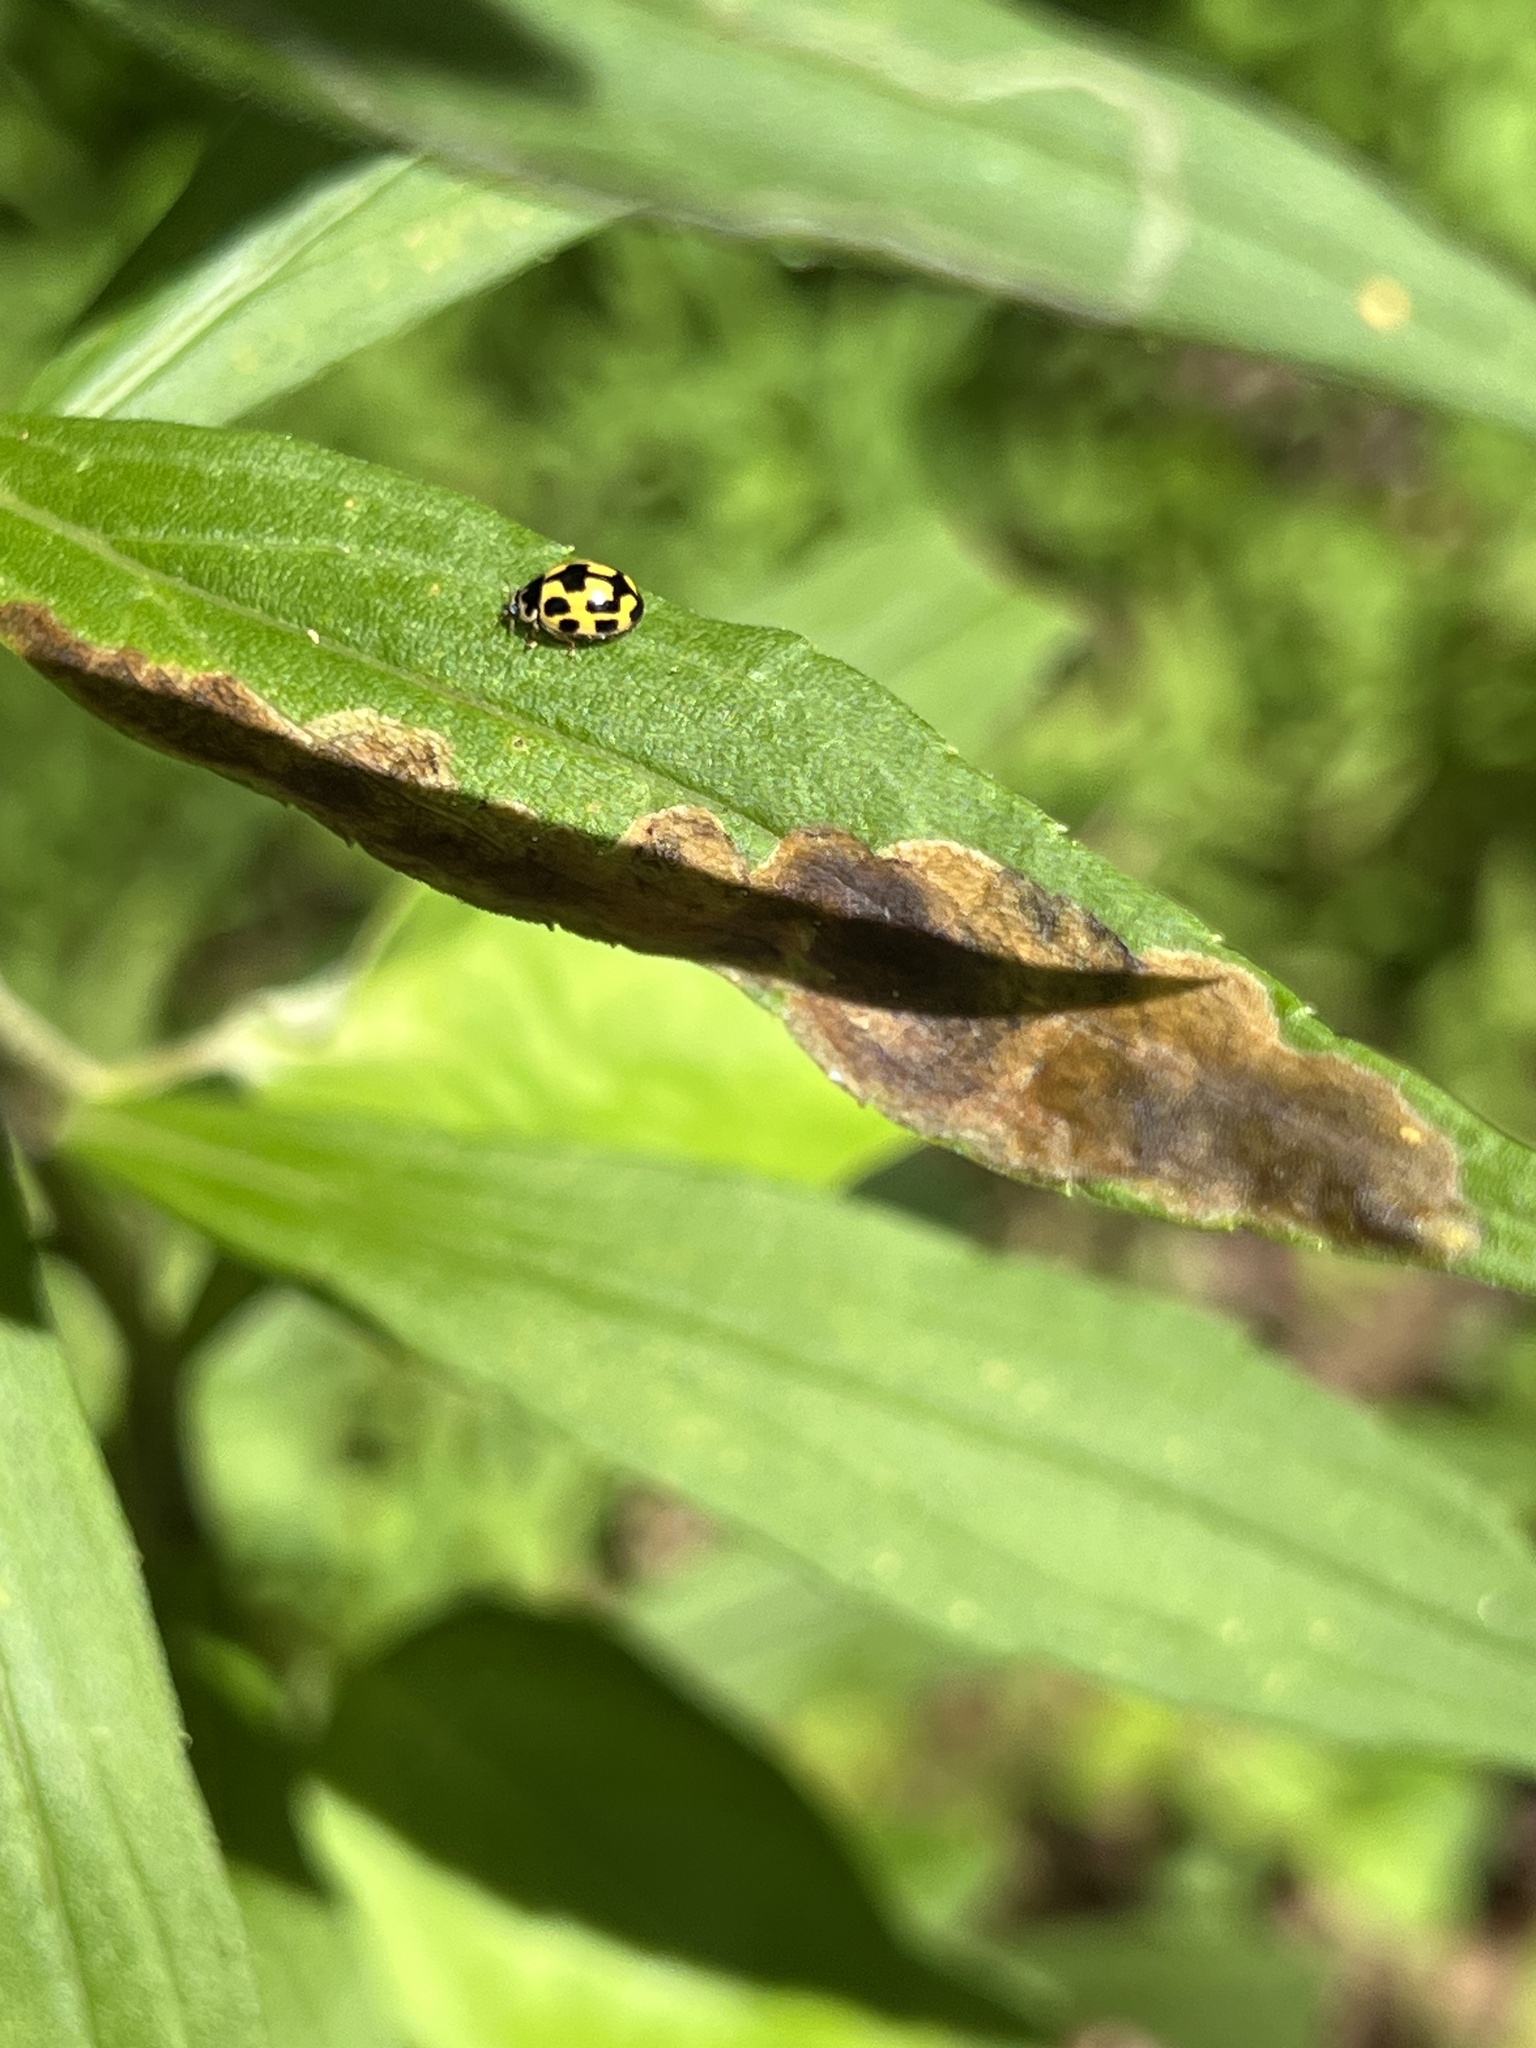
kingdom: Animalia
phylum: Arthropoda
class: Insecta
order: Coleoptera
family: Coccinellidae
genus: Propylaea
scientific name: Propylaea quatuordecimpunctata
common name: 14-spotted ladybird beetle
